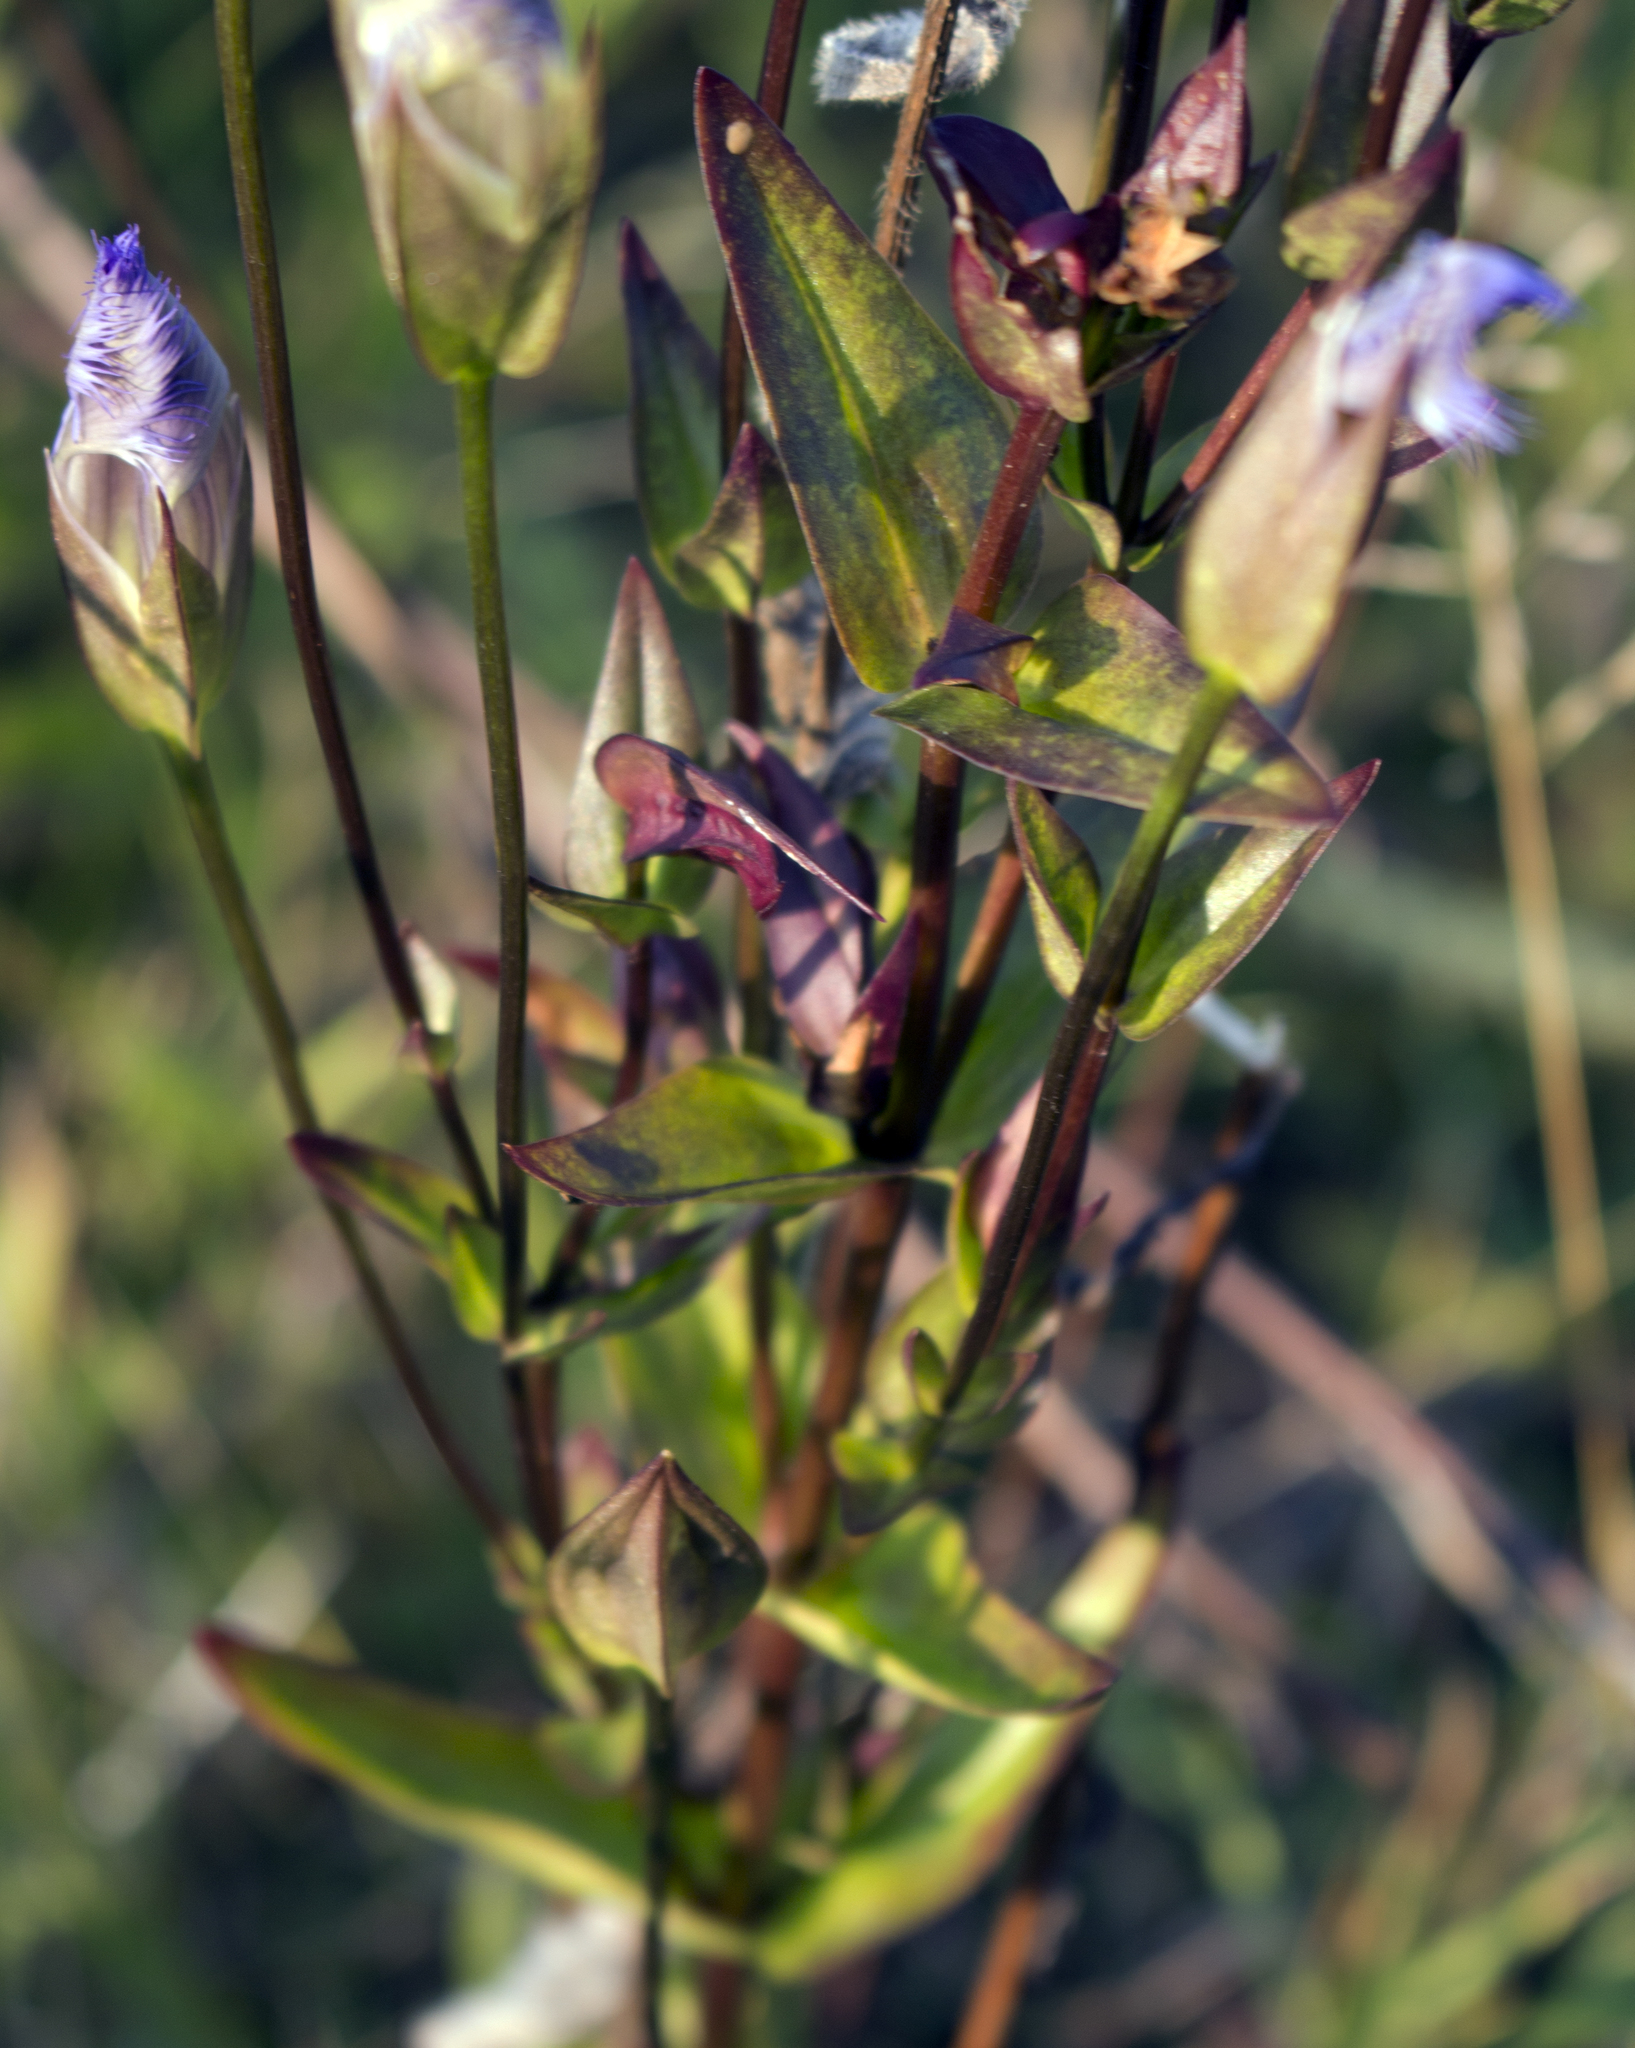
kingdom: Plantae
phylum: Tracheophyta
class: Magnoliopsida
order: Gentianales
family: Gentianaceae
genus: Gentianopsis
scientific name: Gentianopsis crinita
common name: Fringed-gentian
